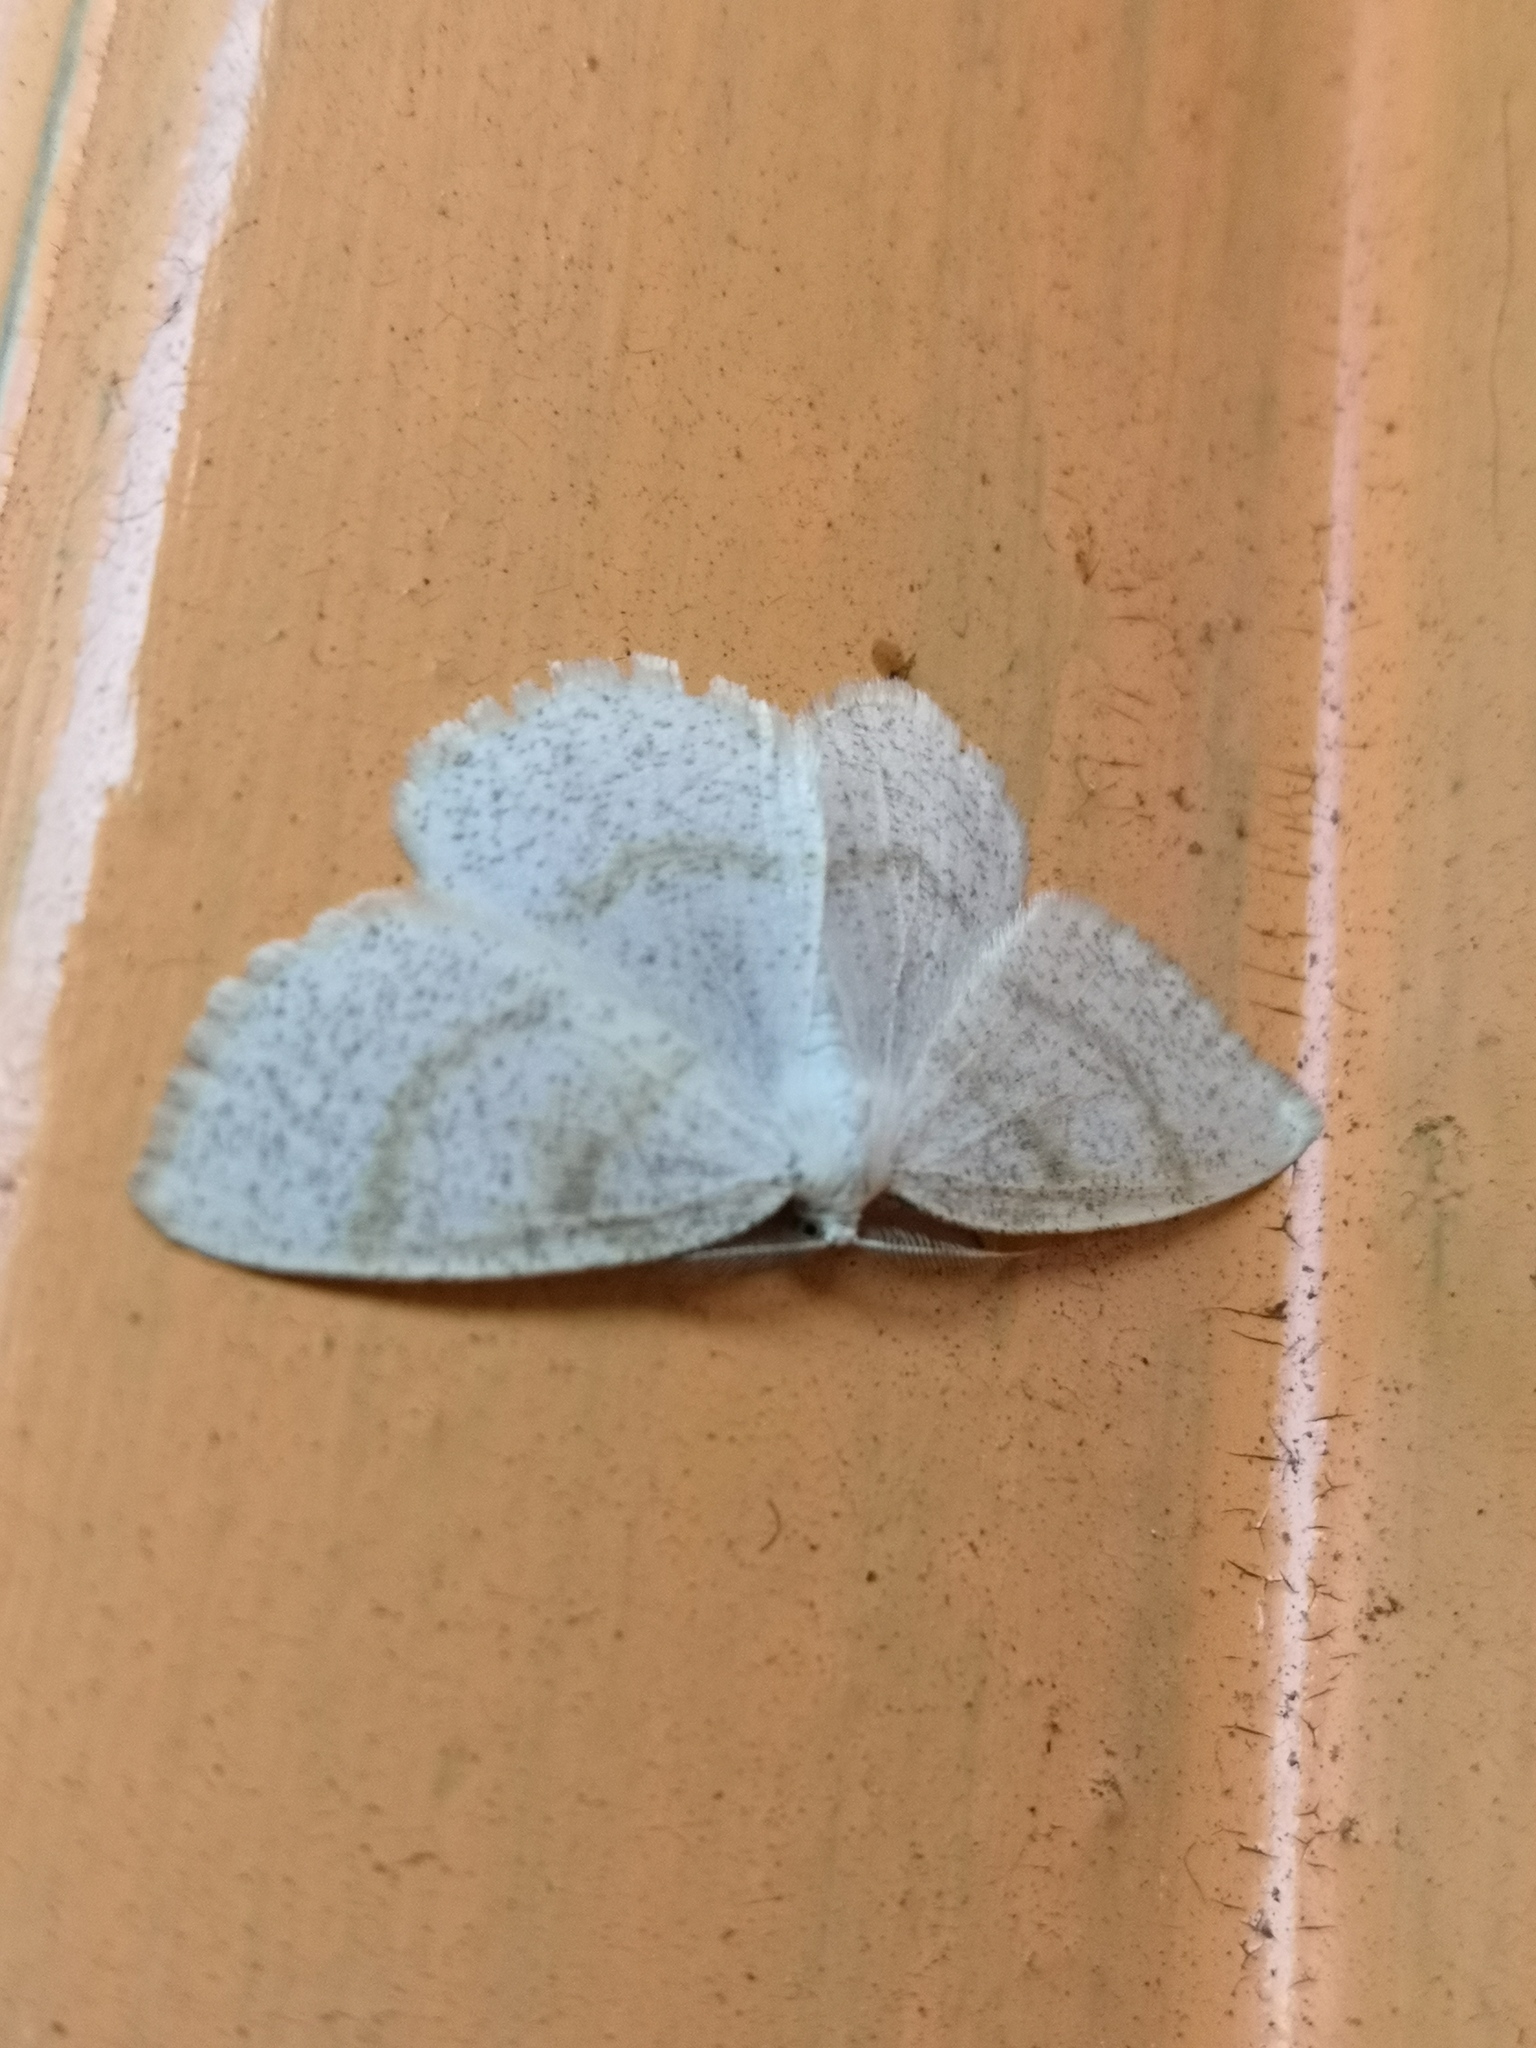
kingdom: Animalia
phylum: Arthropoda
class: Insecta
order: Lepidoptera
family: Geometridae
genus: Cabera
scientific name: Cabera exanthemata
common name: Common wave
